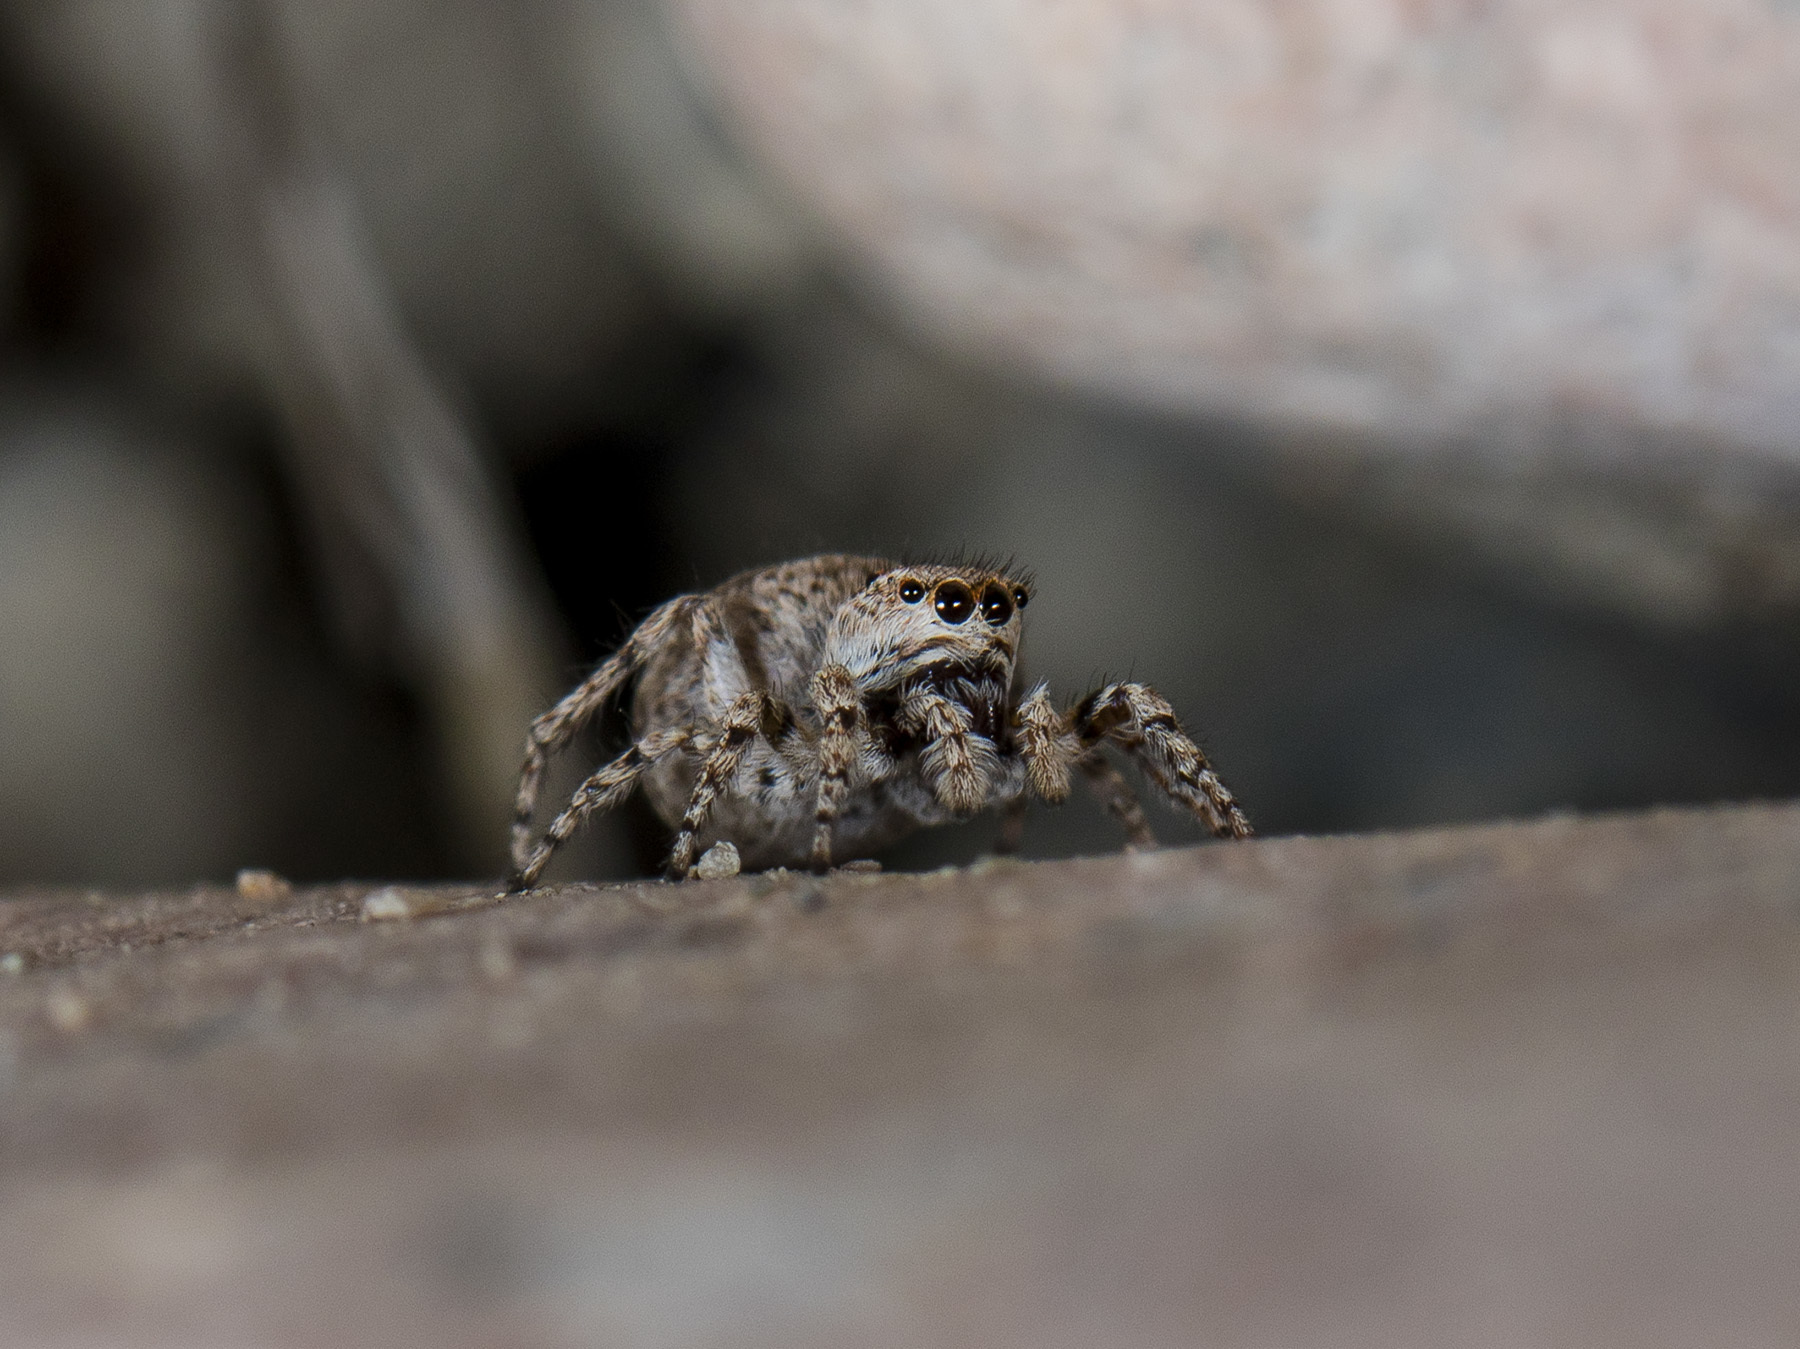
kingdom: Animalia
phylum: Arthropoda
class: Arachnida
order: Araneae
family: Salticidae
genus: Attulus
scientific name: Attulus avocator
